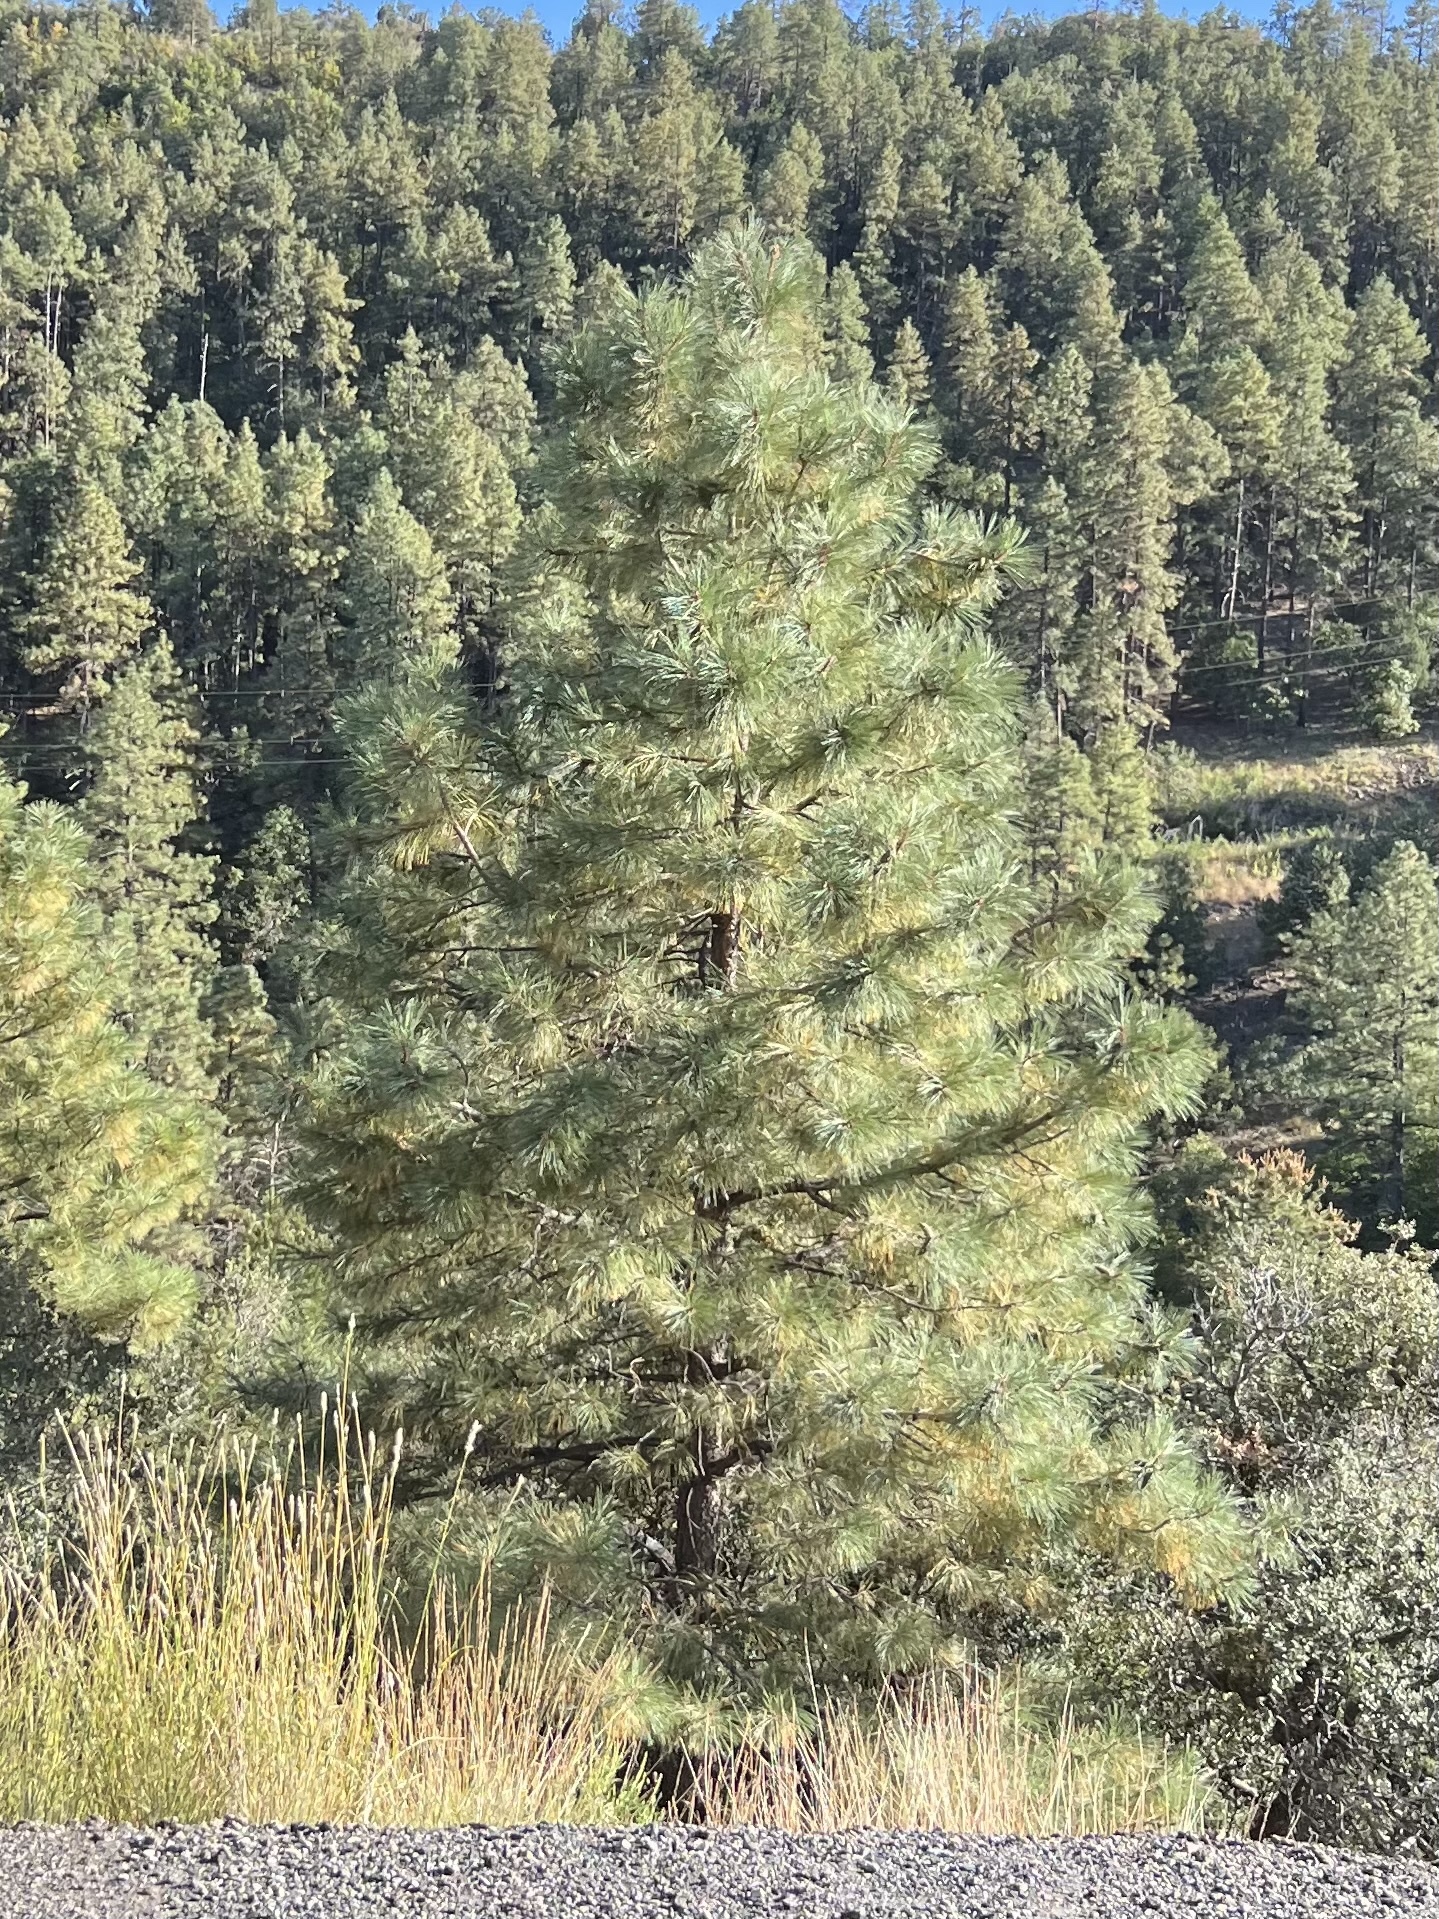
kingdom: Plantae
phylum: Tracheophyta
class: Pinopsida
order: Pinales
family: Pinaceae
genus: Pinus
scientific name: Pinus ponderosa
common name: Western yellow-pine
